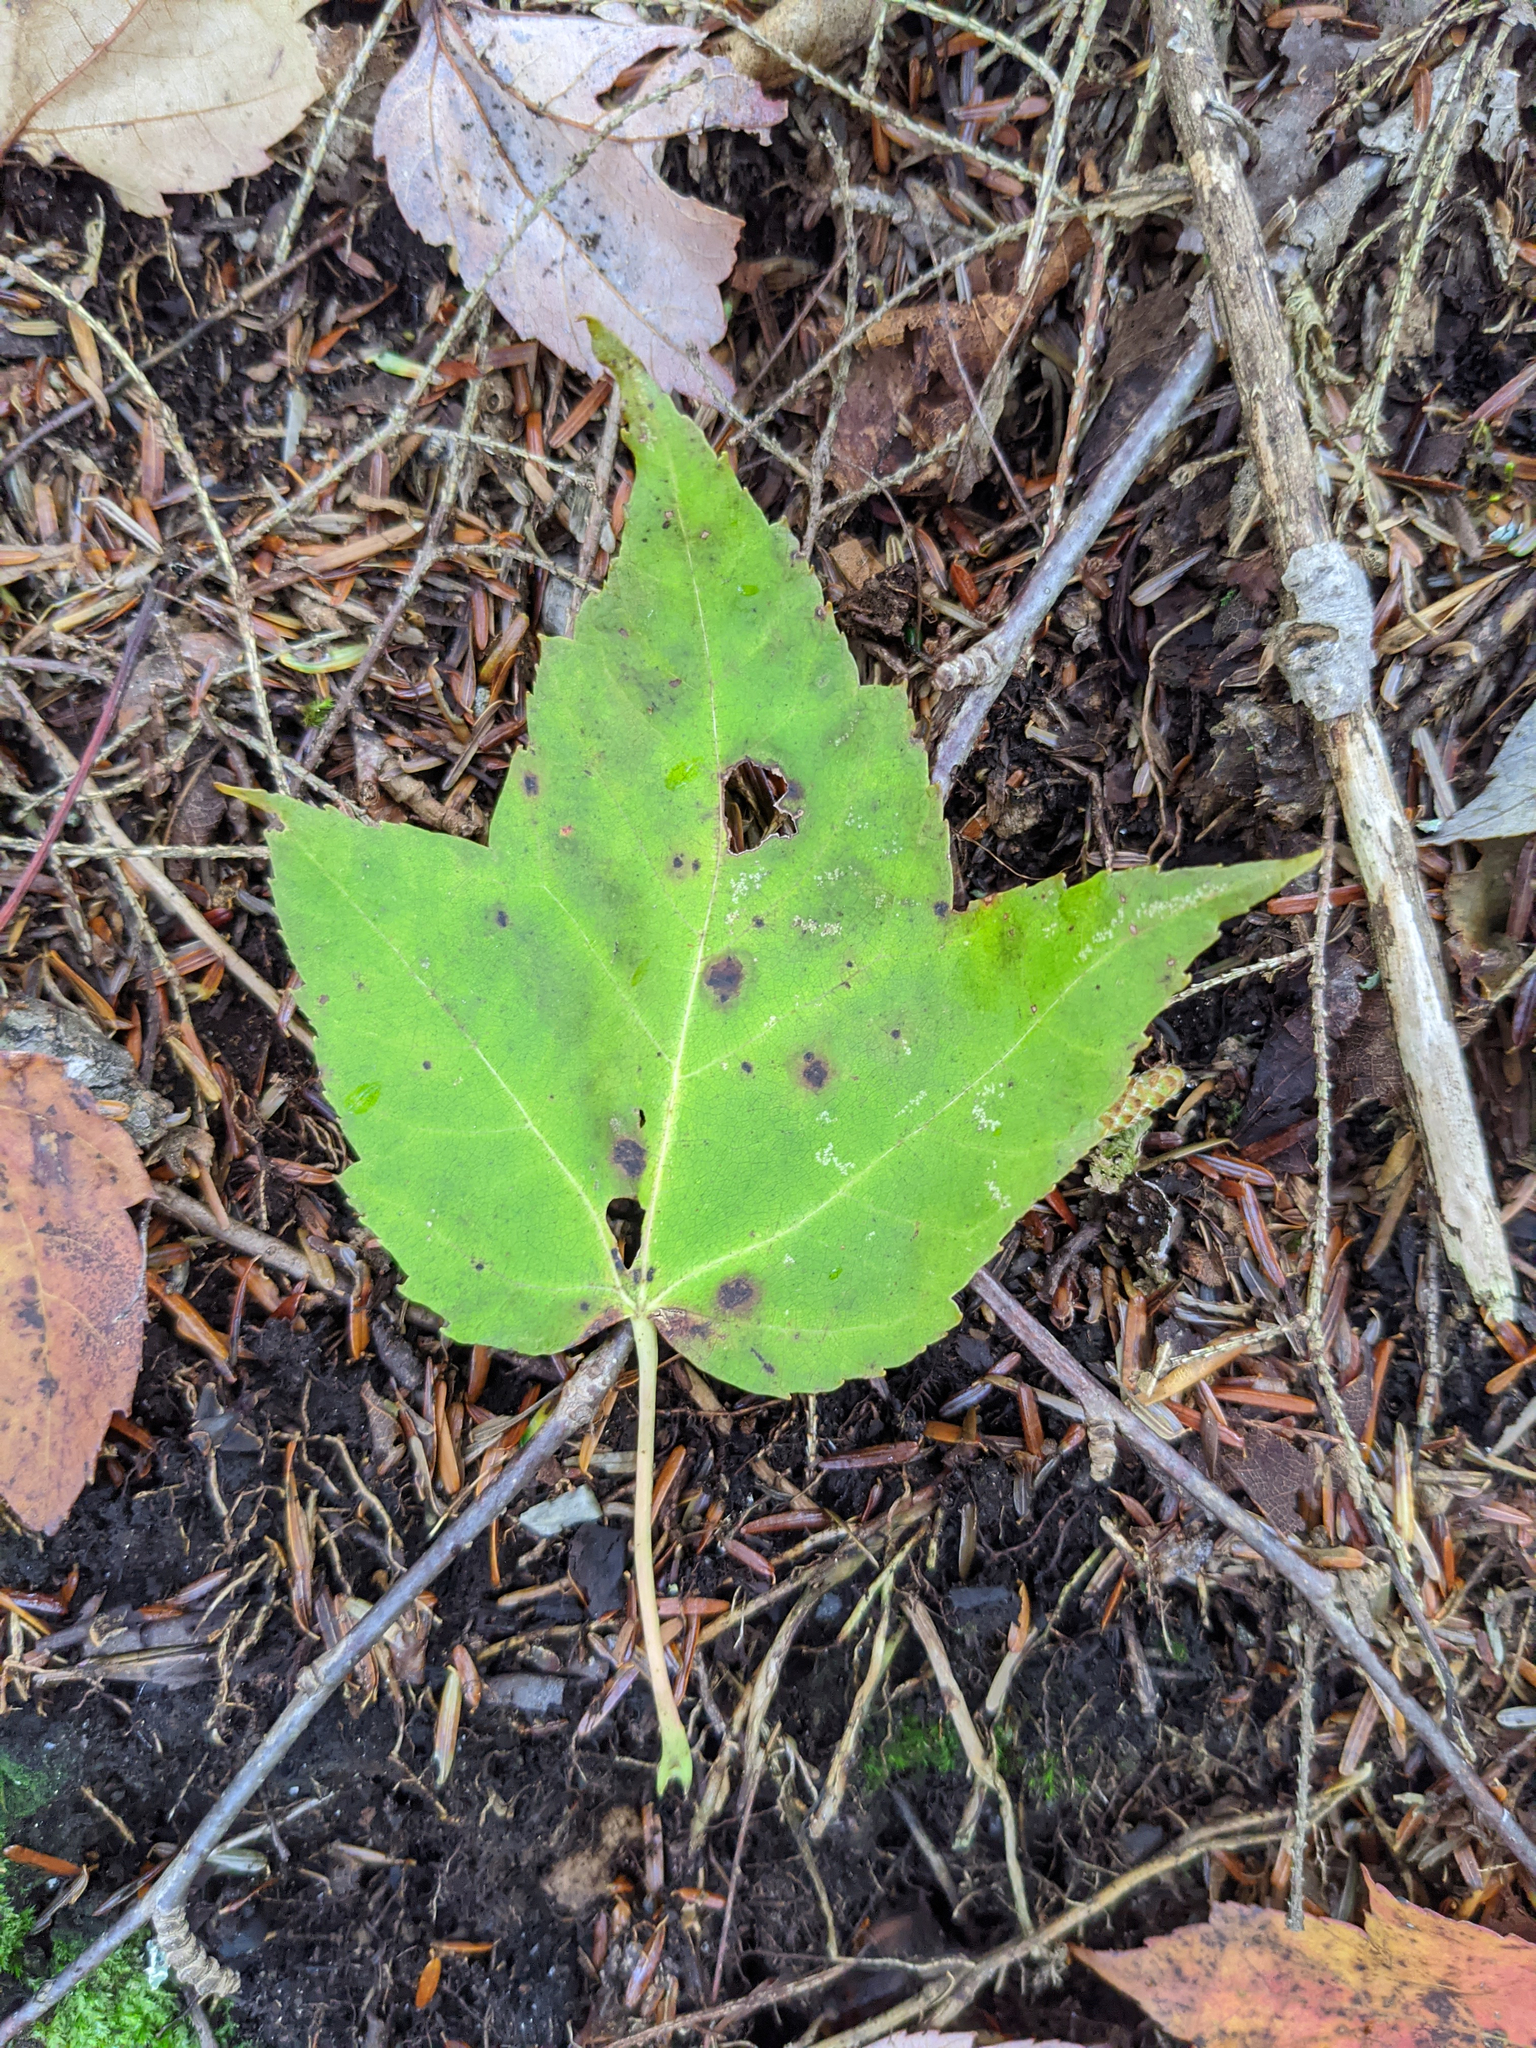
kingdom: Plantae
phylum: Tracheophyta
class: Magnoliopsida
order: Sapindales
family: Sapindaceae
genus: Acer
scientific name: Acer rubrum
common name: Red maple
